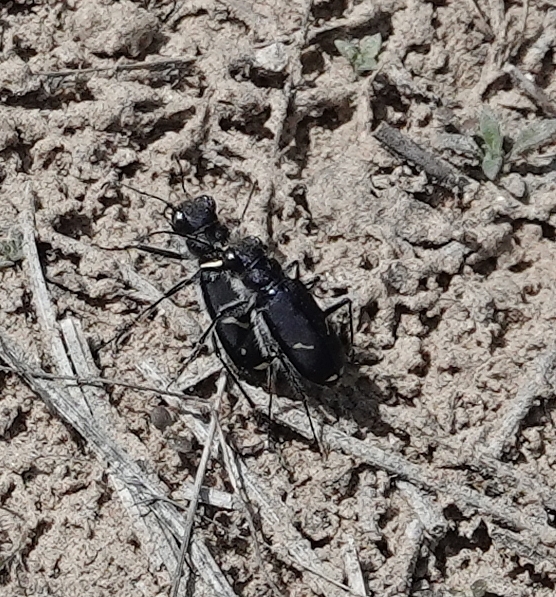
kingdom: Animalia
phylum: Arthropoda
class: Insecta
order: Coleoptera
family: Carabidae
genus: Cicindela
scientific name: Cicindela purpurea
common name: Cow path tiger beetle
